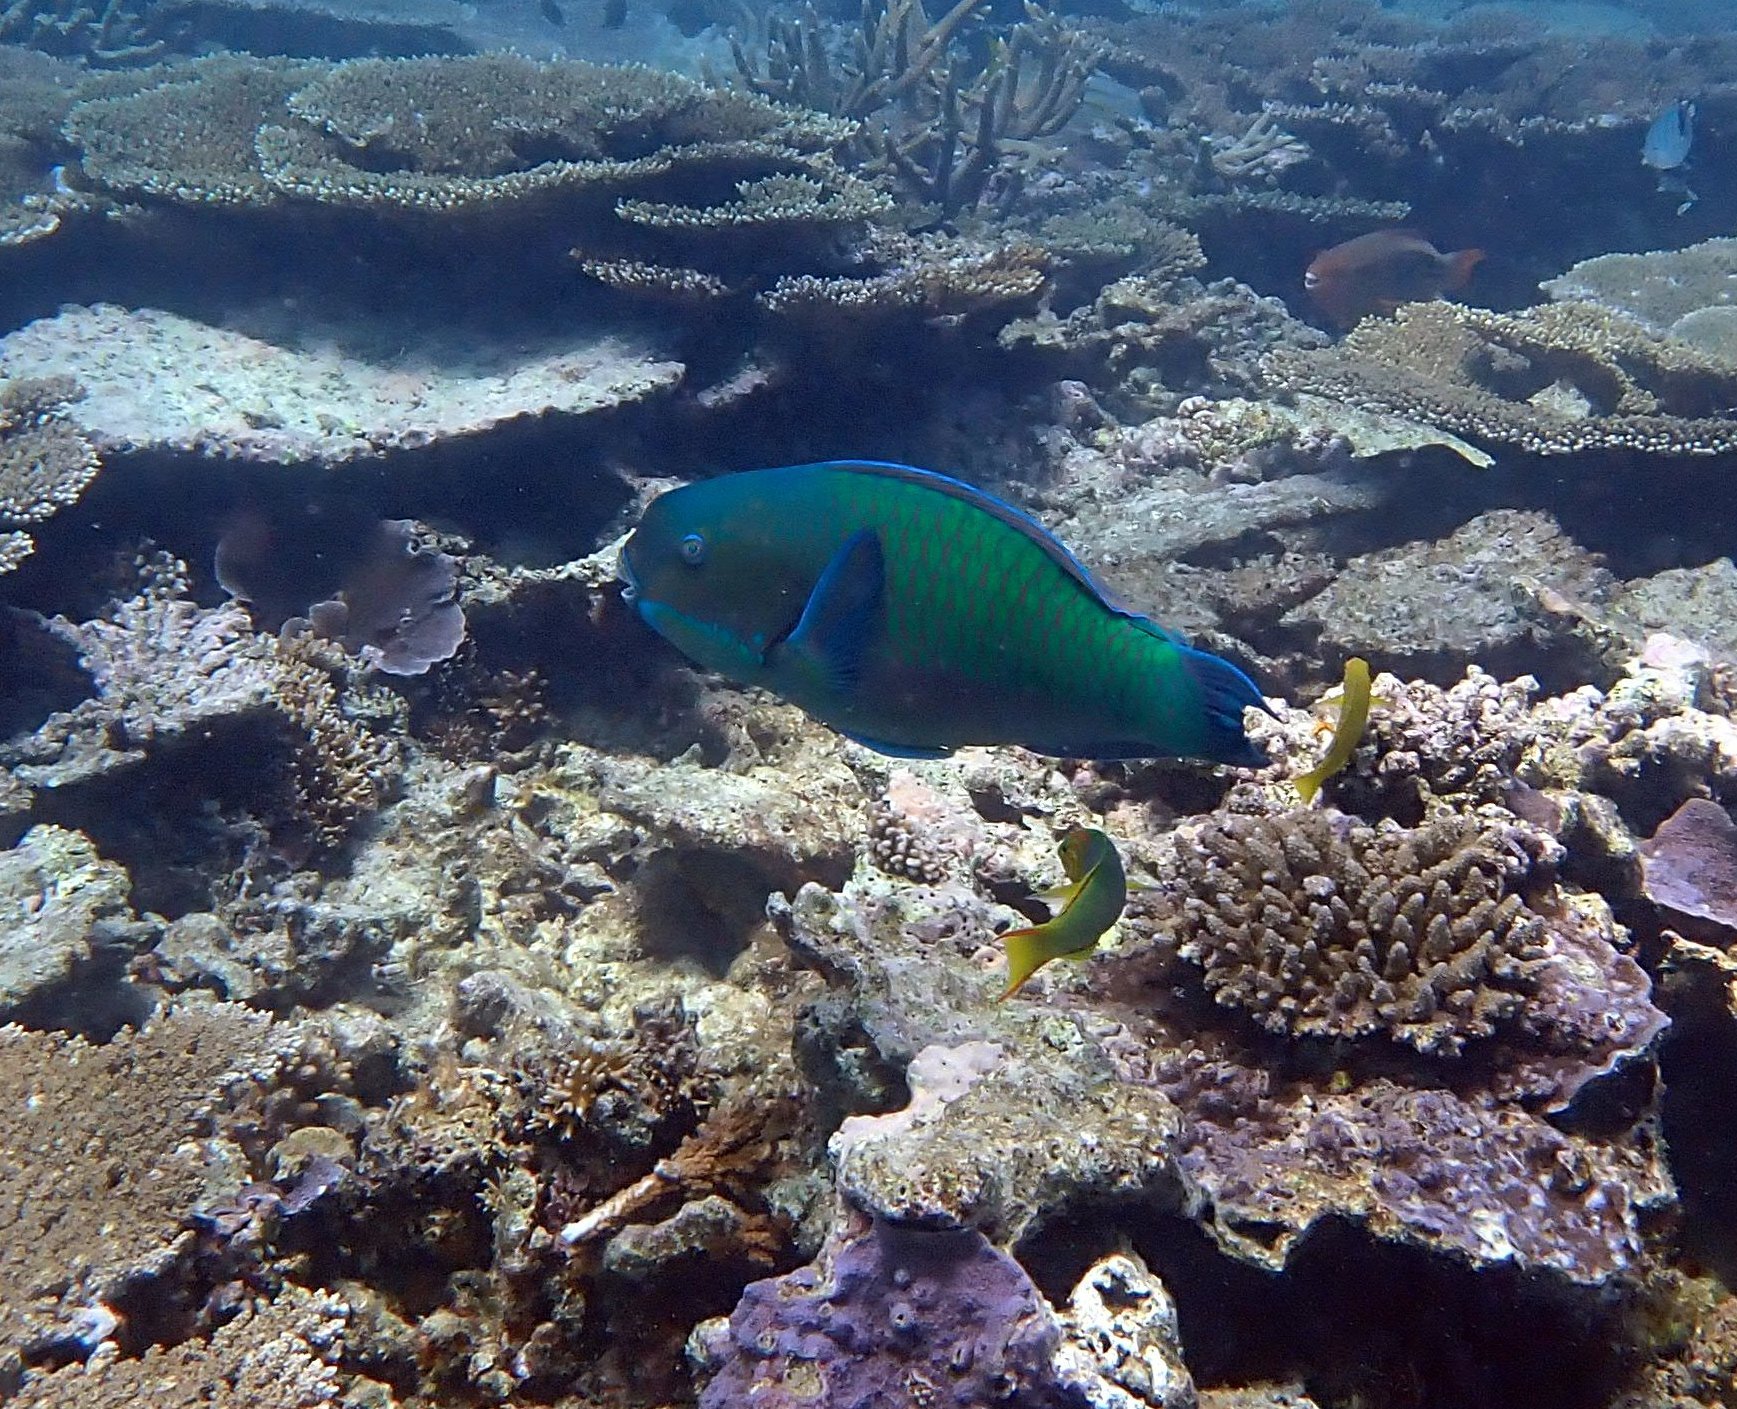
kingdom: Animalia
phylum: Chordata
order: Perciformes
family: Scaridae
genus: Chlorurus
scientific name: Chlorurus microrhinos
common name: Steephead parrotfish
